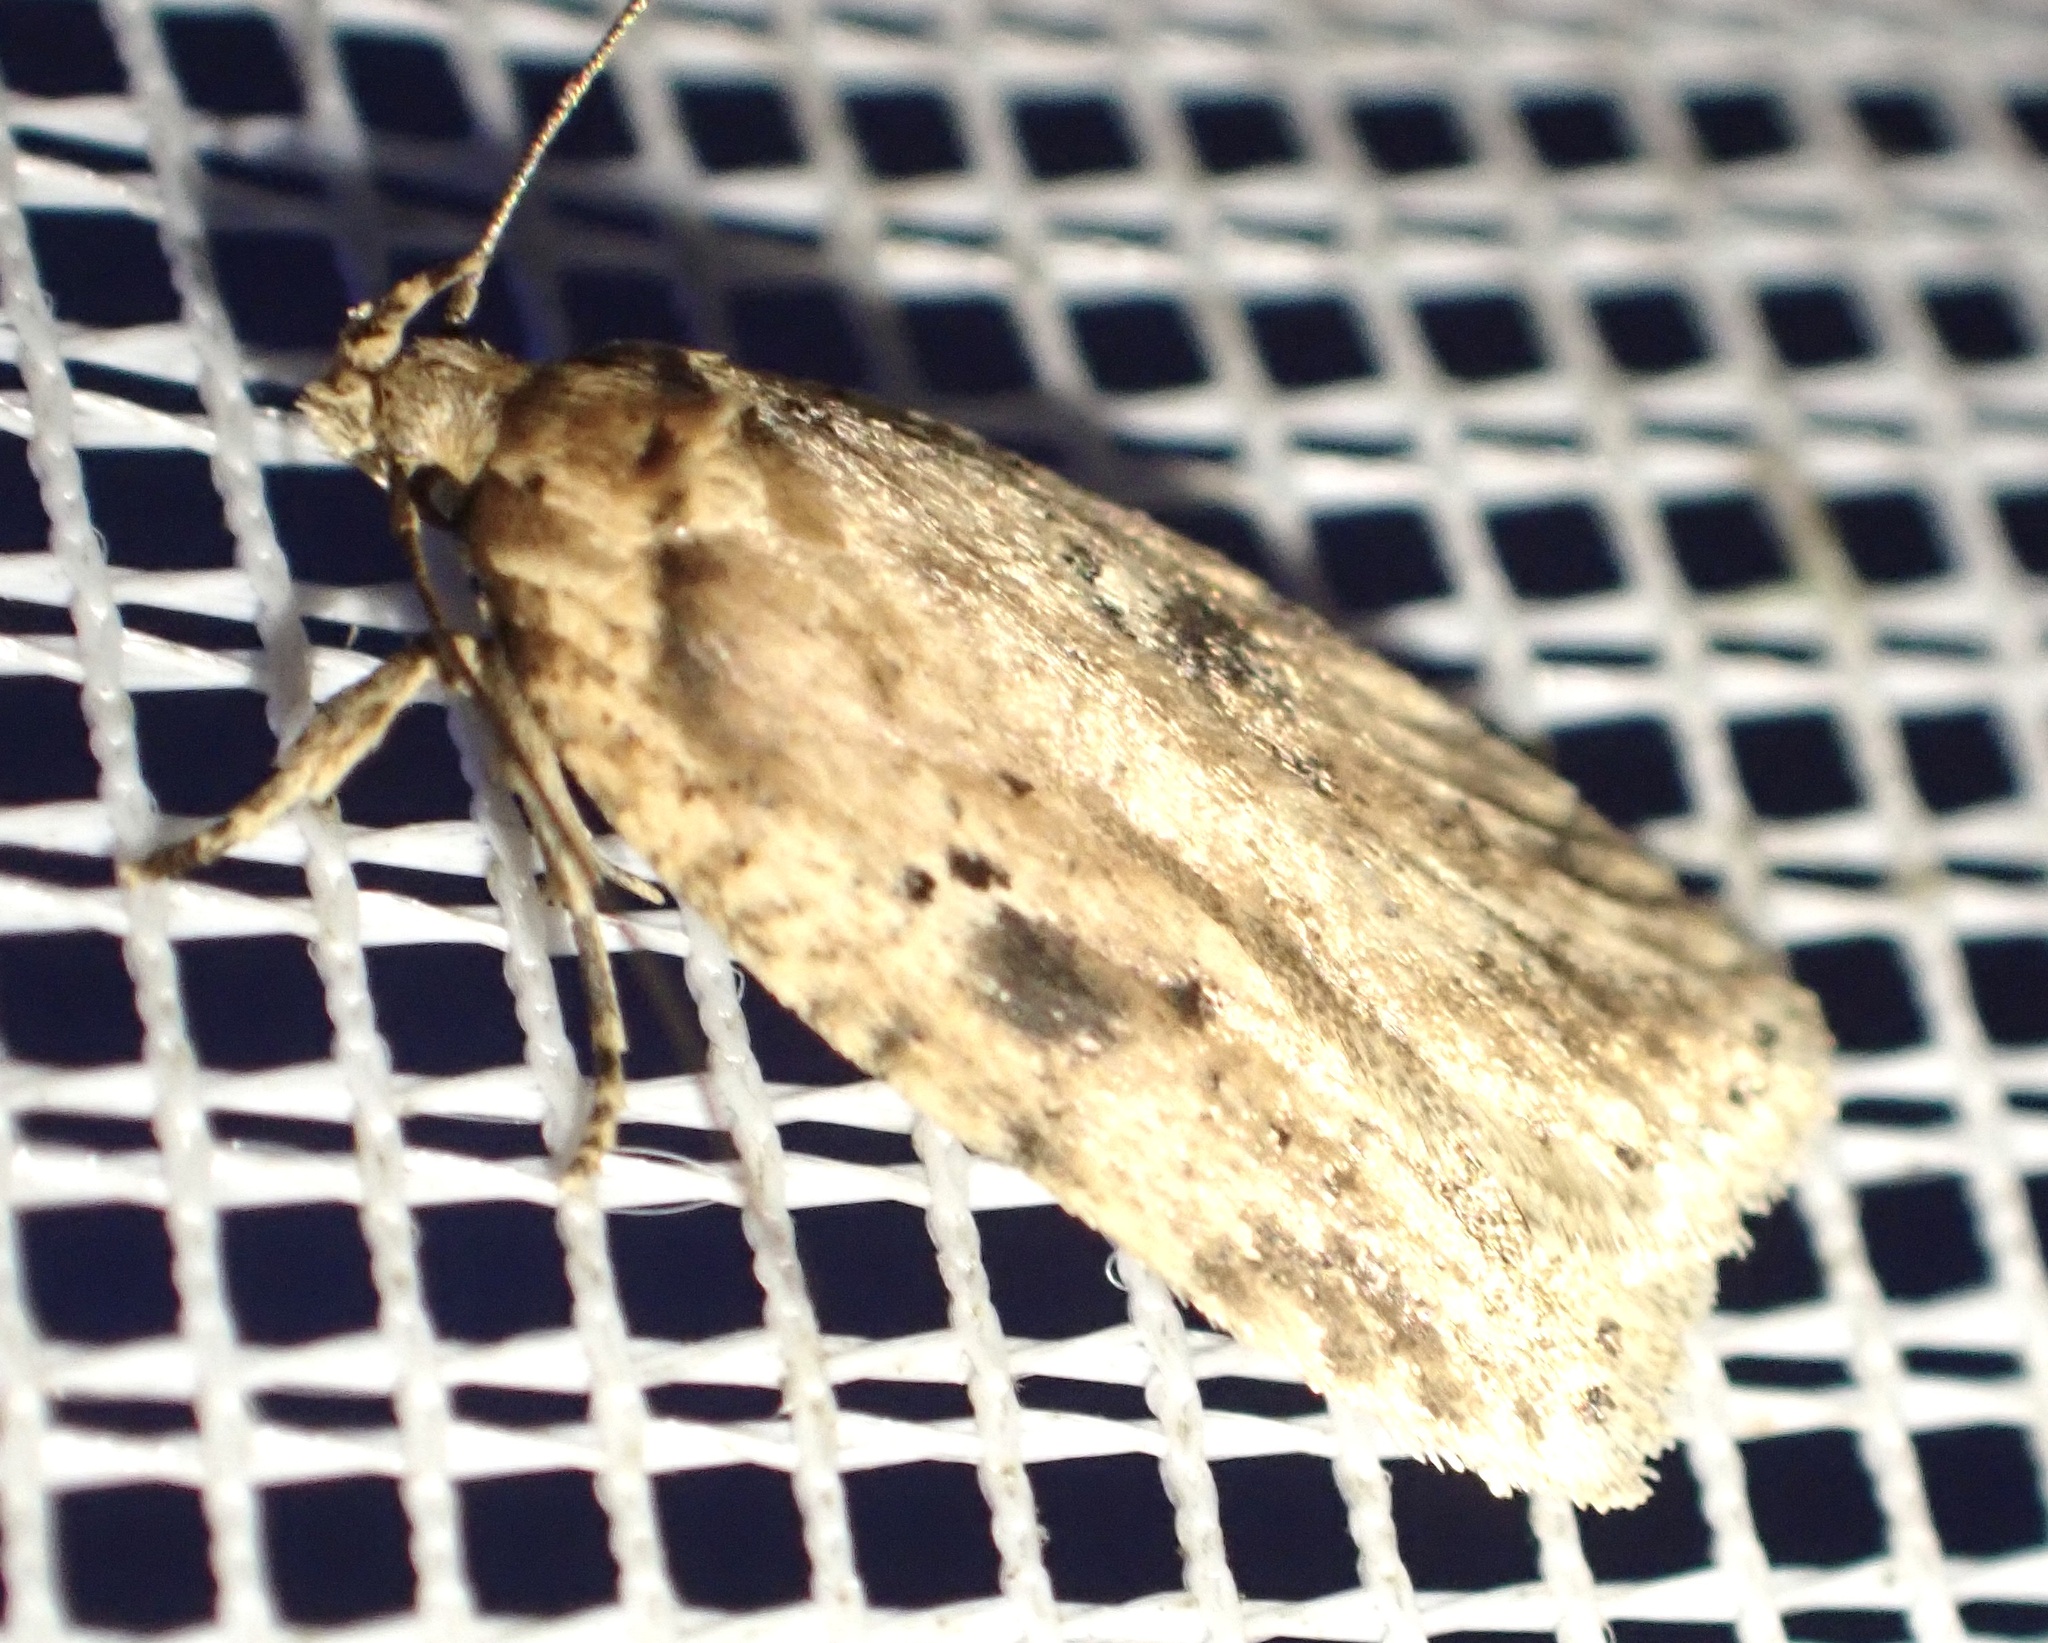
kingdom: Animalia
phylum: Arthropoda
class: Insecta
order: Lepidoptera
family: Depressariidae
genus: Agonopterix
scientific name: Agonopterix arenella
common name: Brindled flat-body
